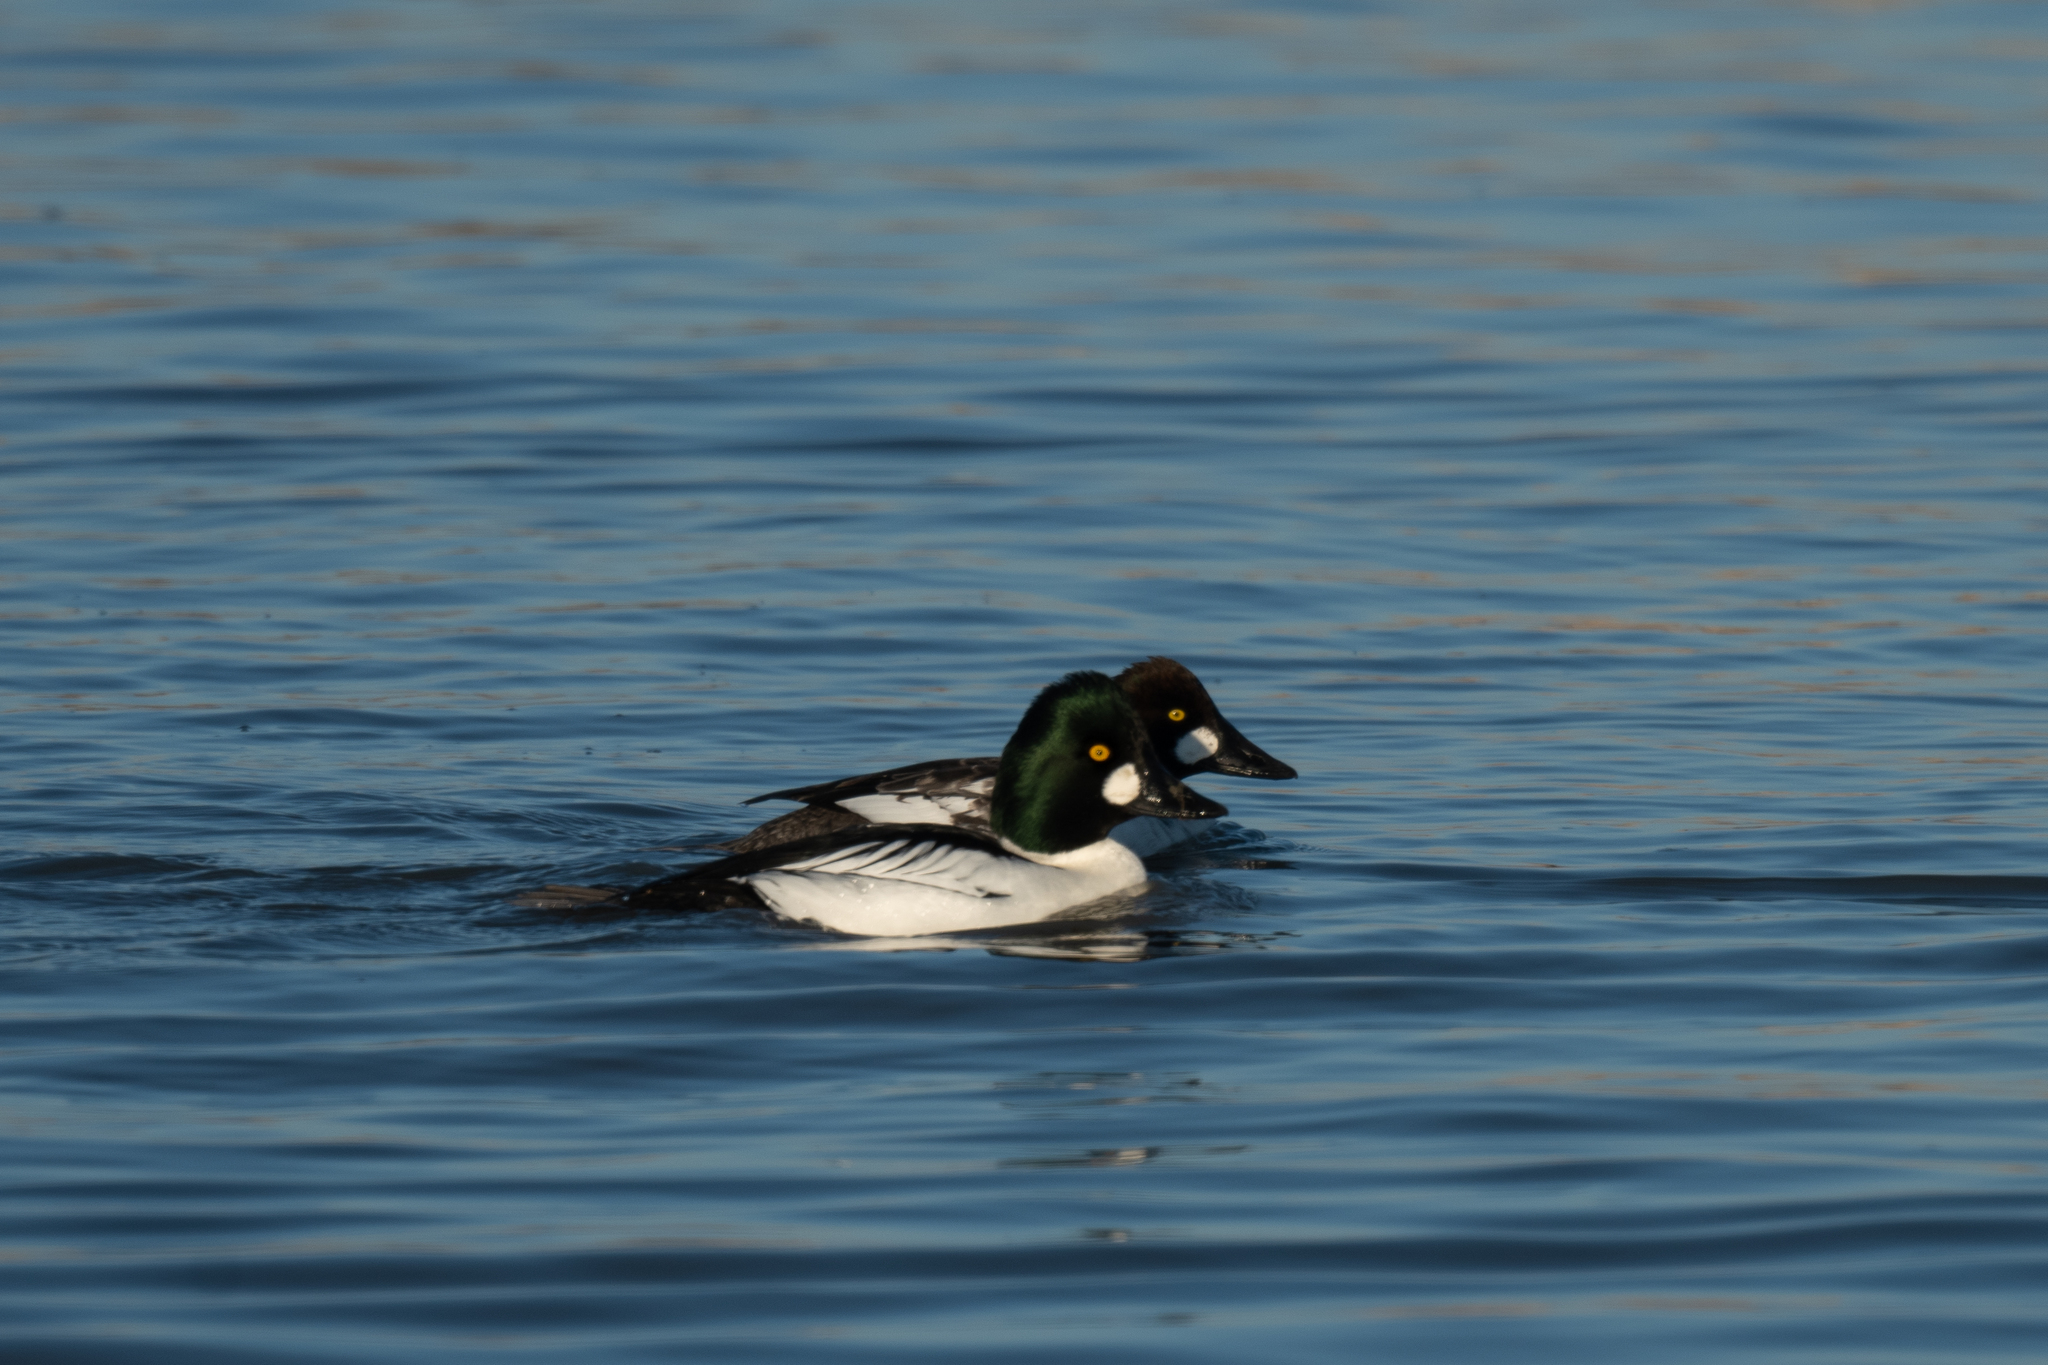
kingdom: Animalia
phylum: Chordata
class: Aves
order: Anseriformes
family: Anatidae
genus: Bucephala
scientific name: Bucephala clangula
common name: Common goldeneye
